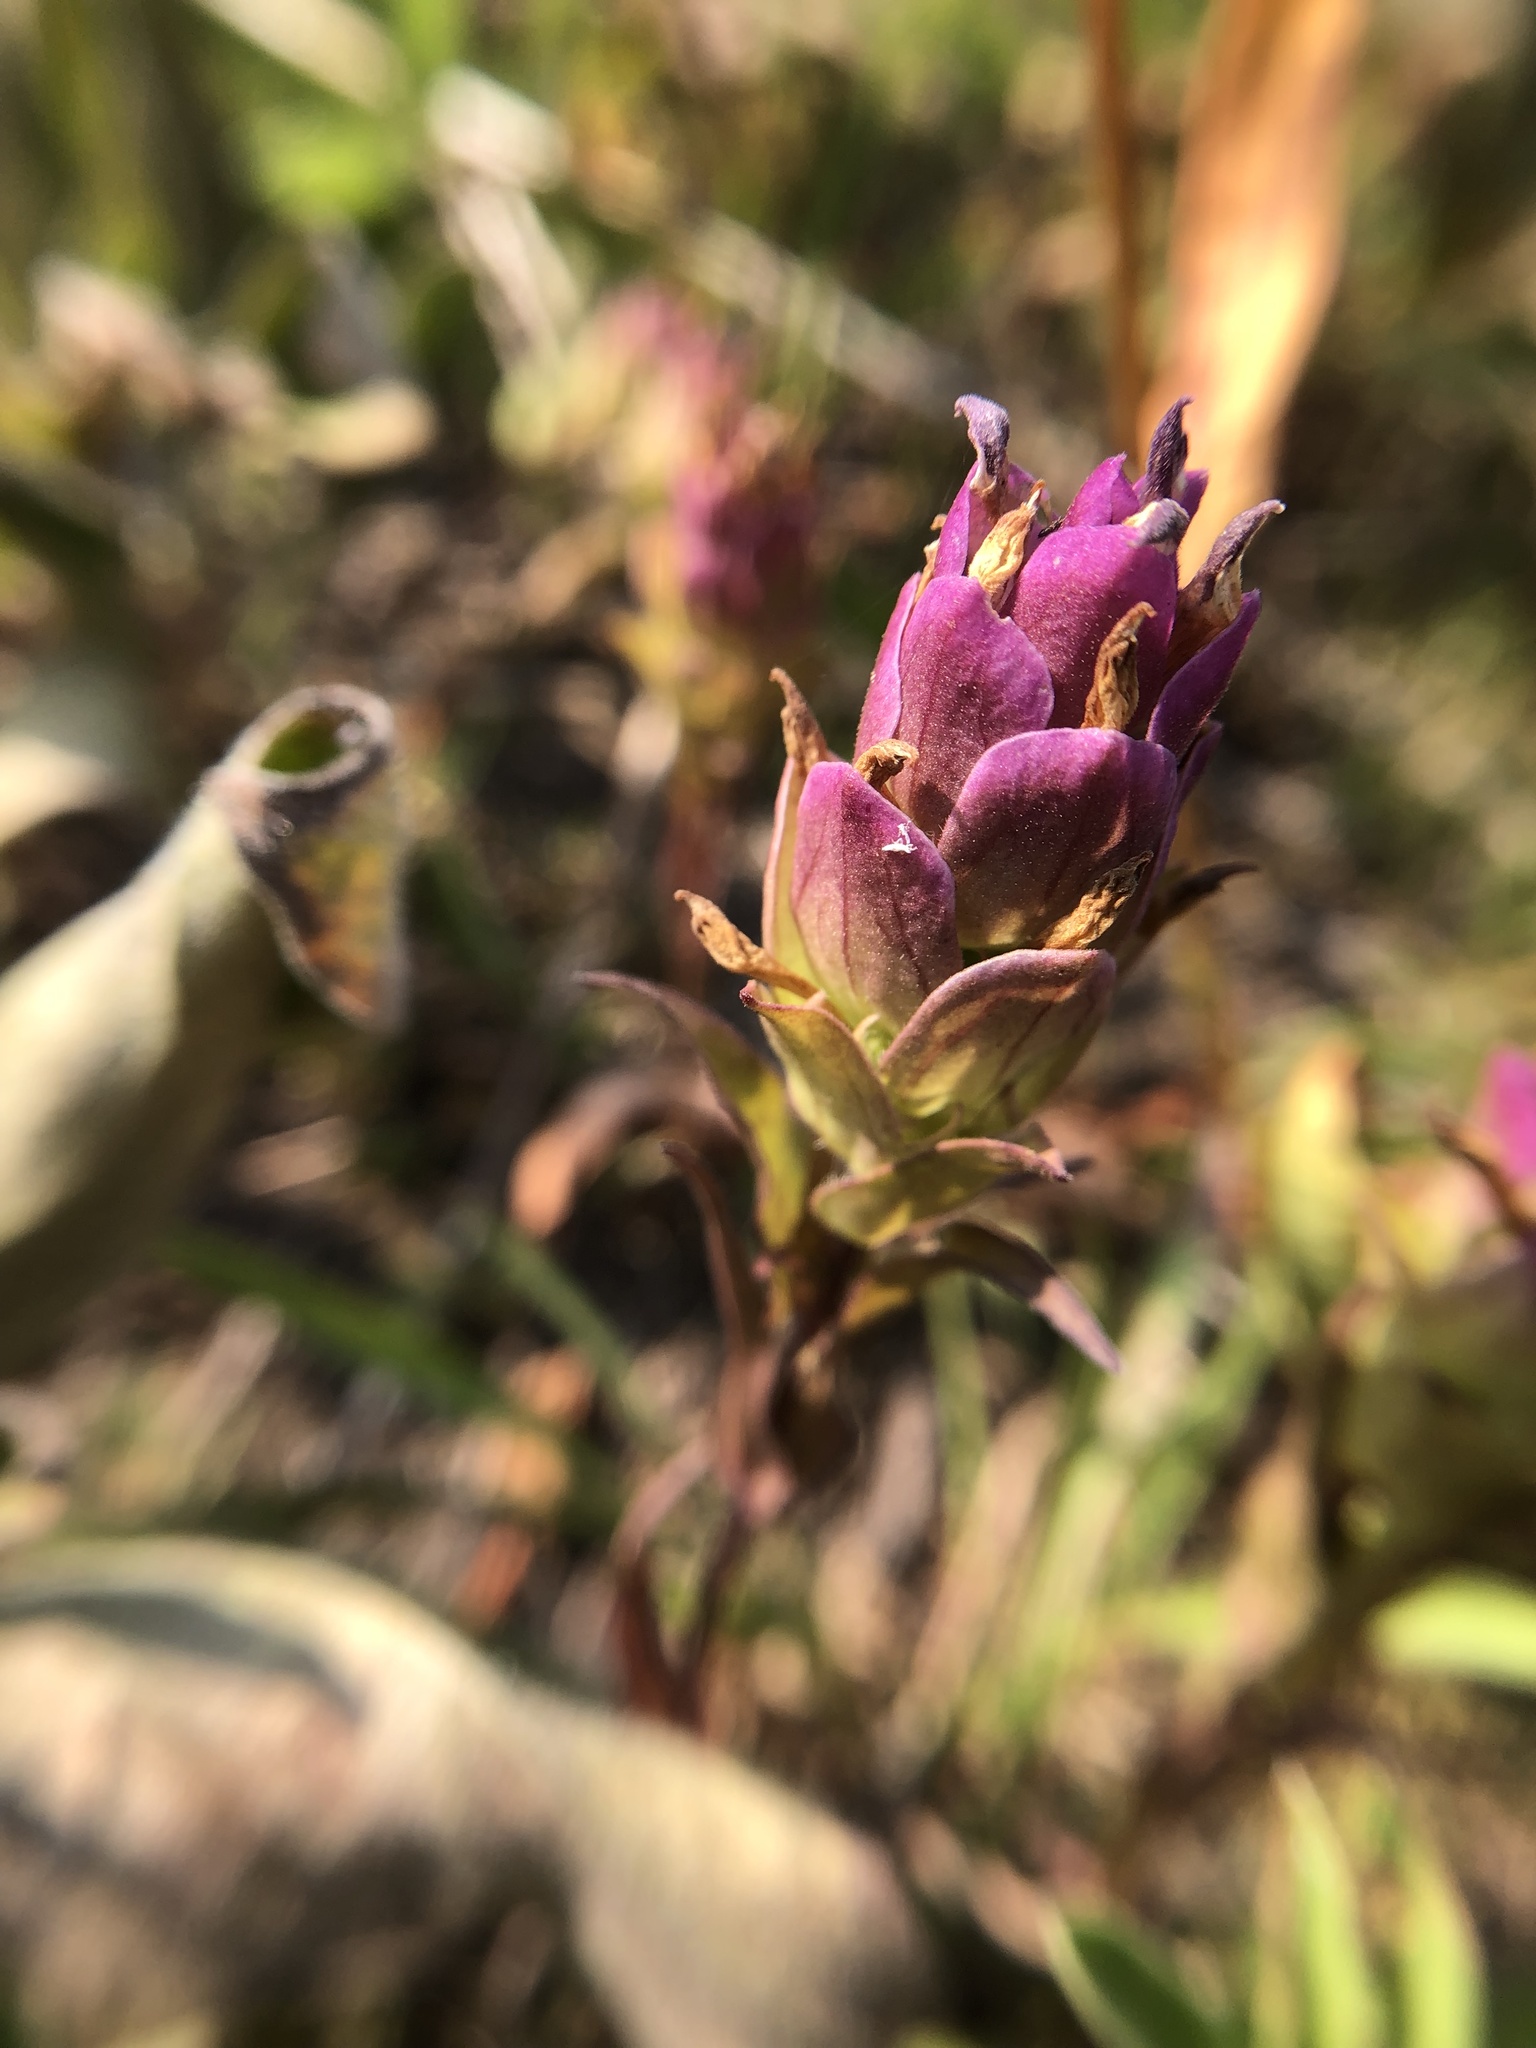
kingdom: Plantae
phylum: Tracheophyta
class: Magnoliopsida
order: Lamiales
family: Orobanchaceae
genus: Orthocarpus
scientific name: Orthocarpus imbricatus
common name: Mountain owl's-clover
